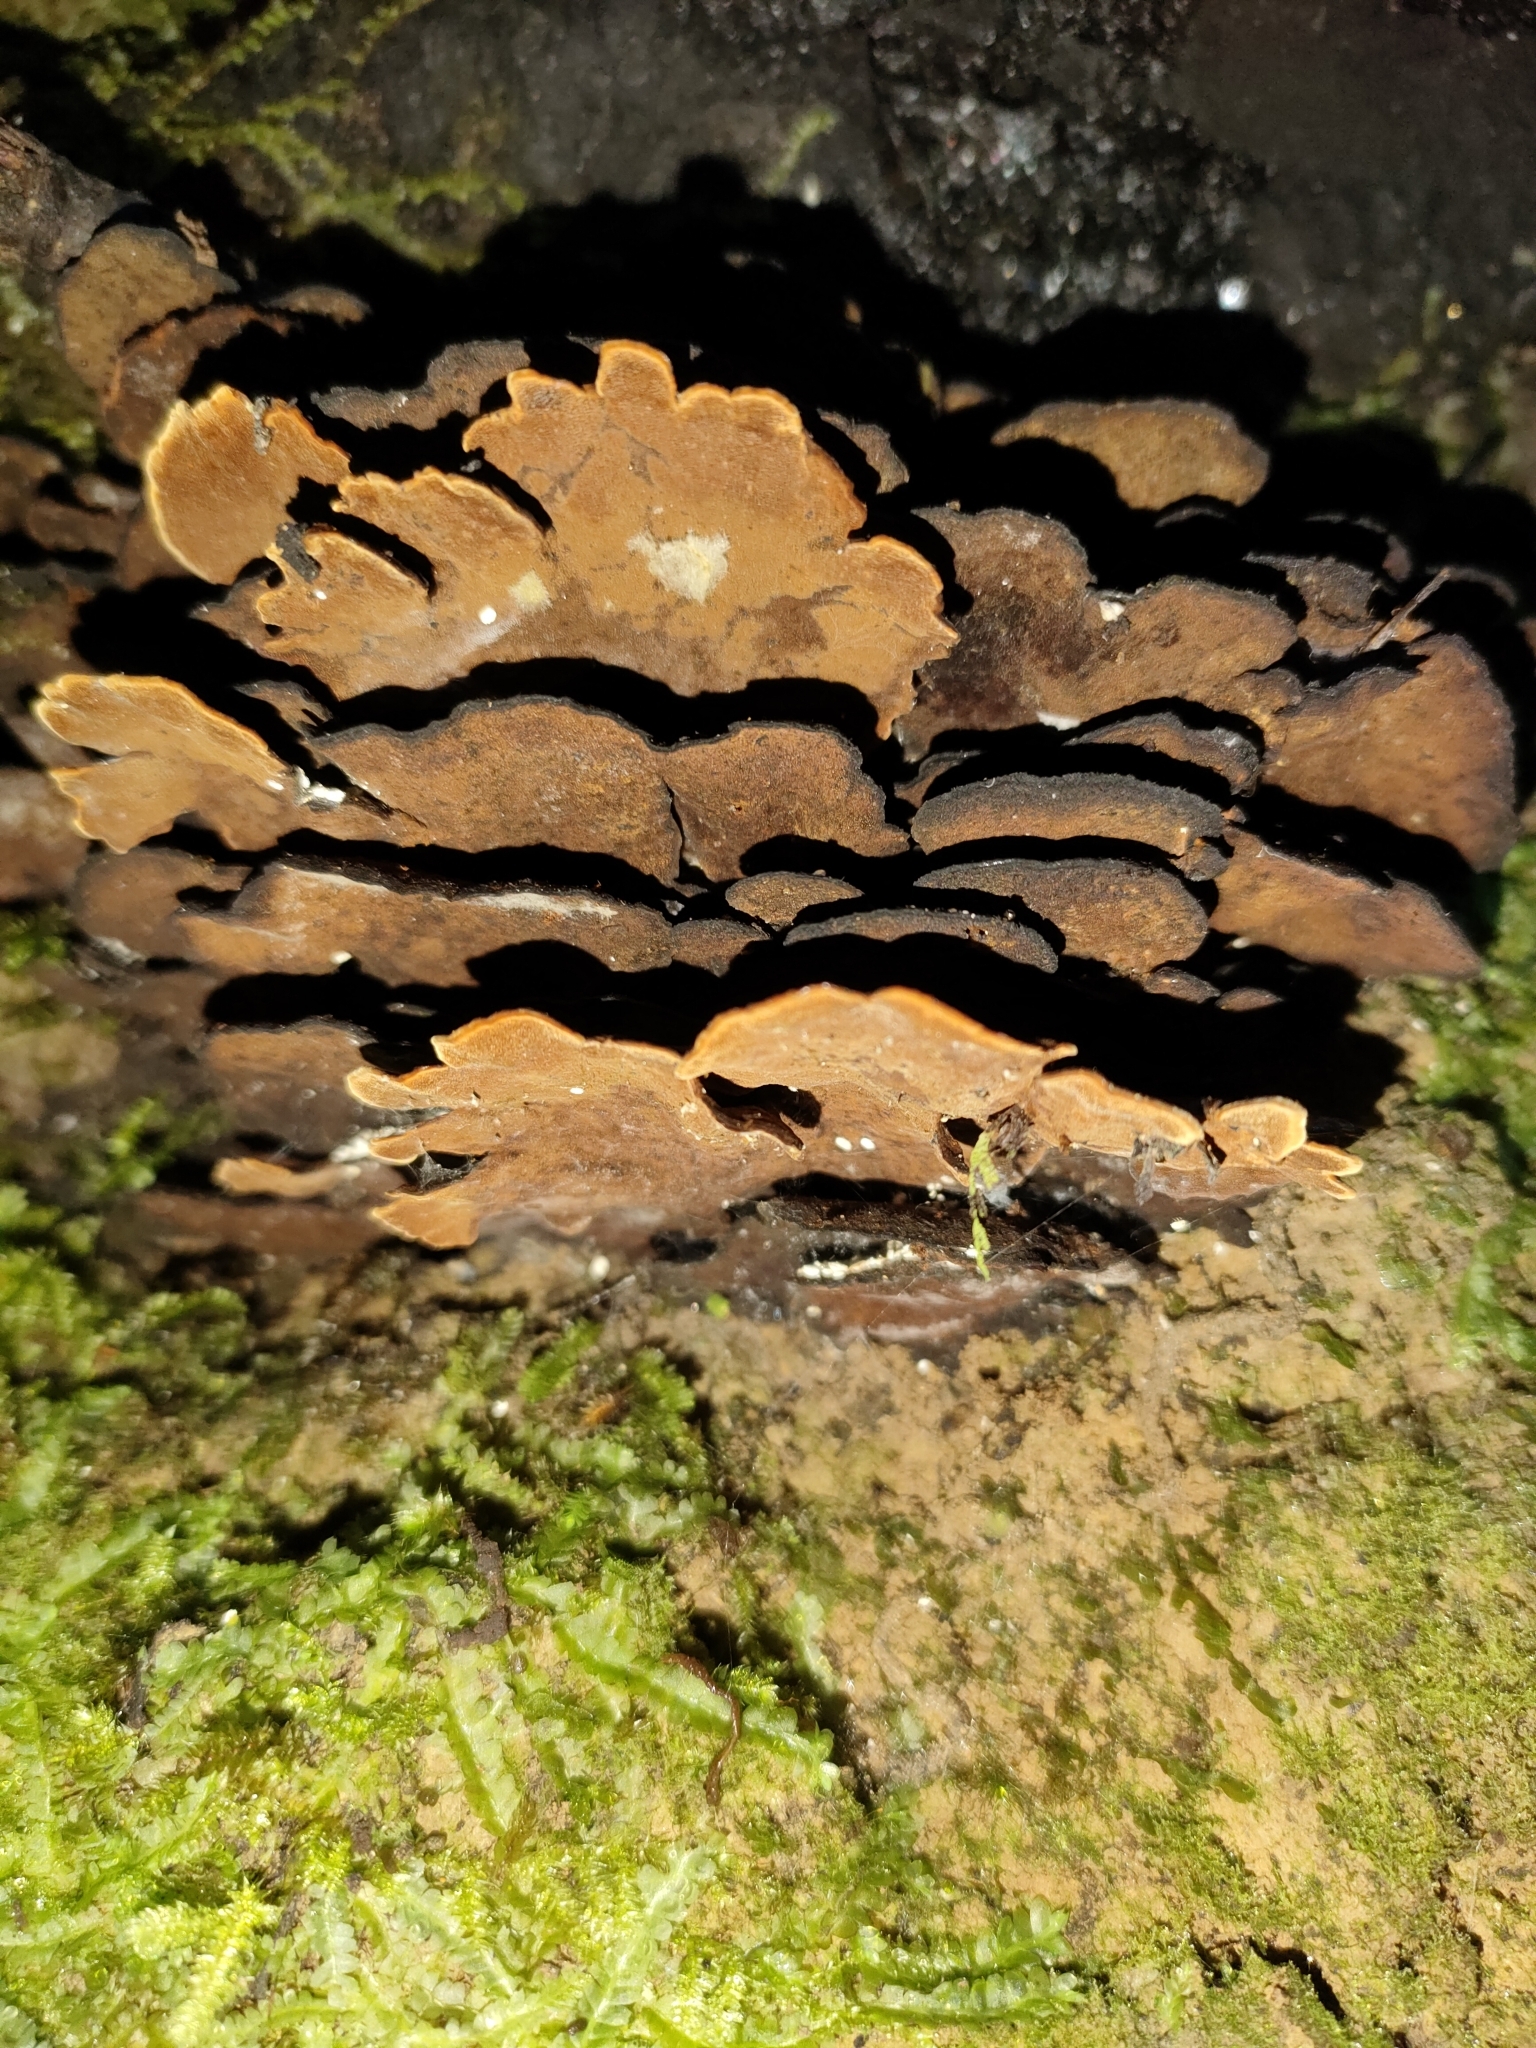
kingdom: Fungi
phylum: Basidiomycota
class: Agaricomycetes
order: Hymenochaetales
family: Hymenochaetaceae
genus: Hymenochaete
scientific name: Hymenochaete microcycla
